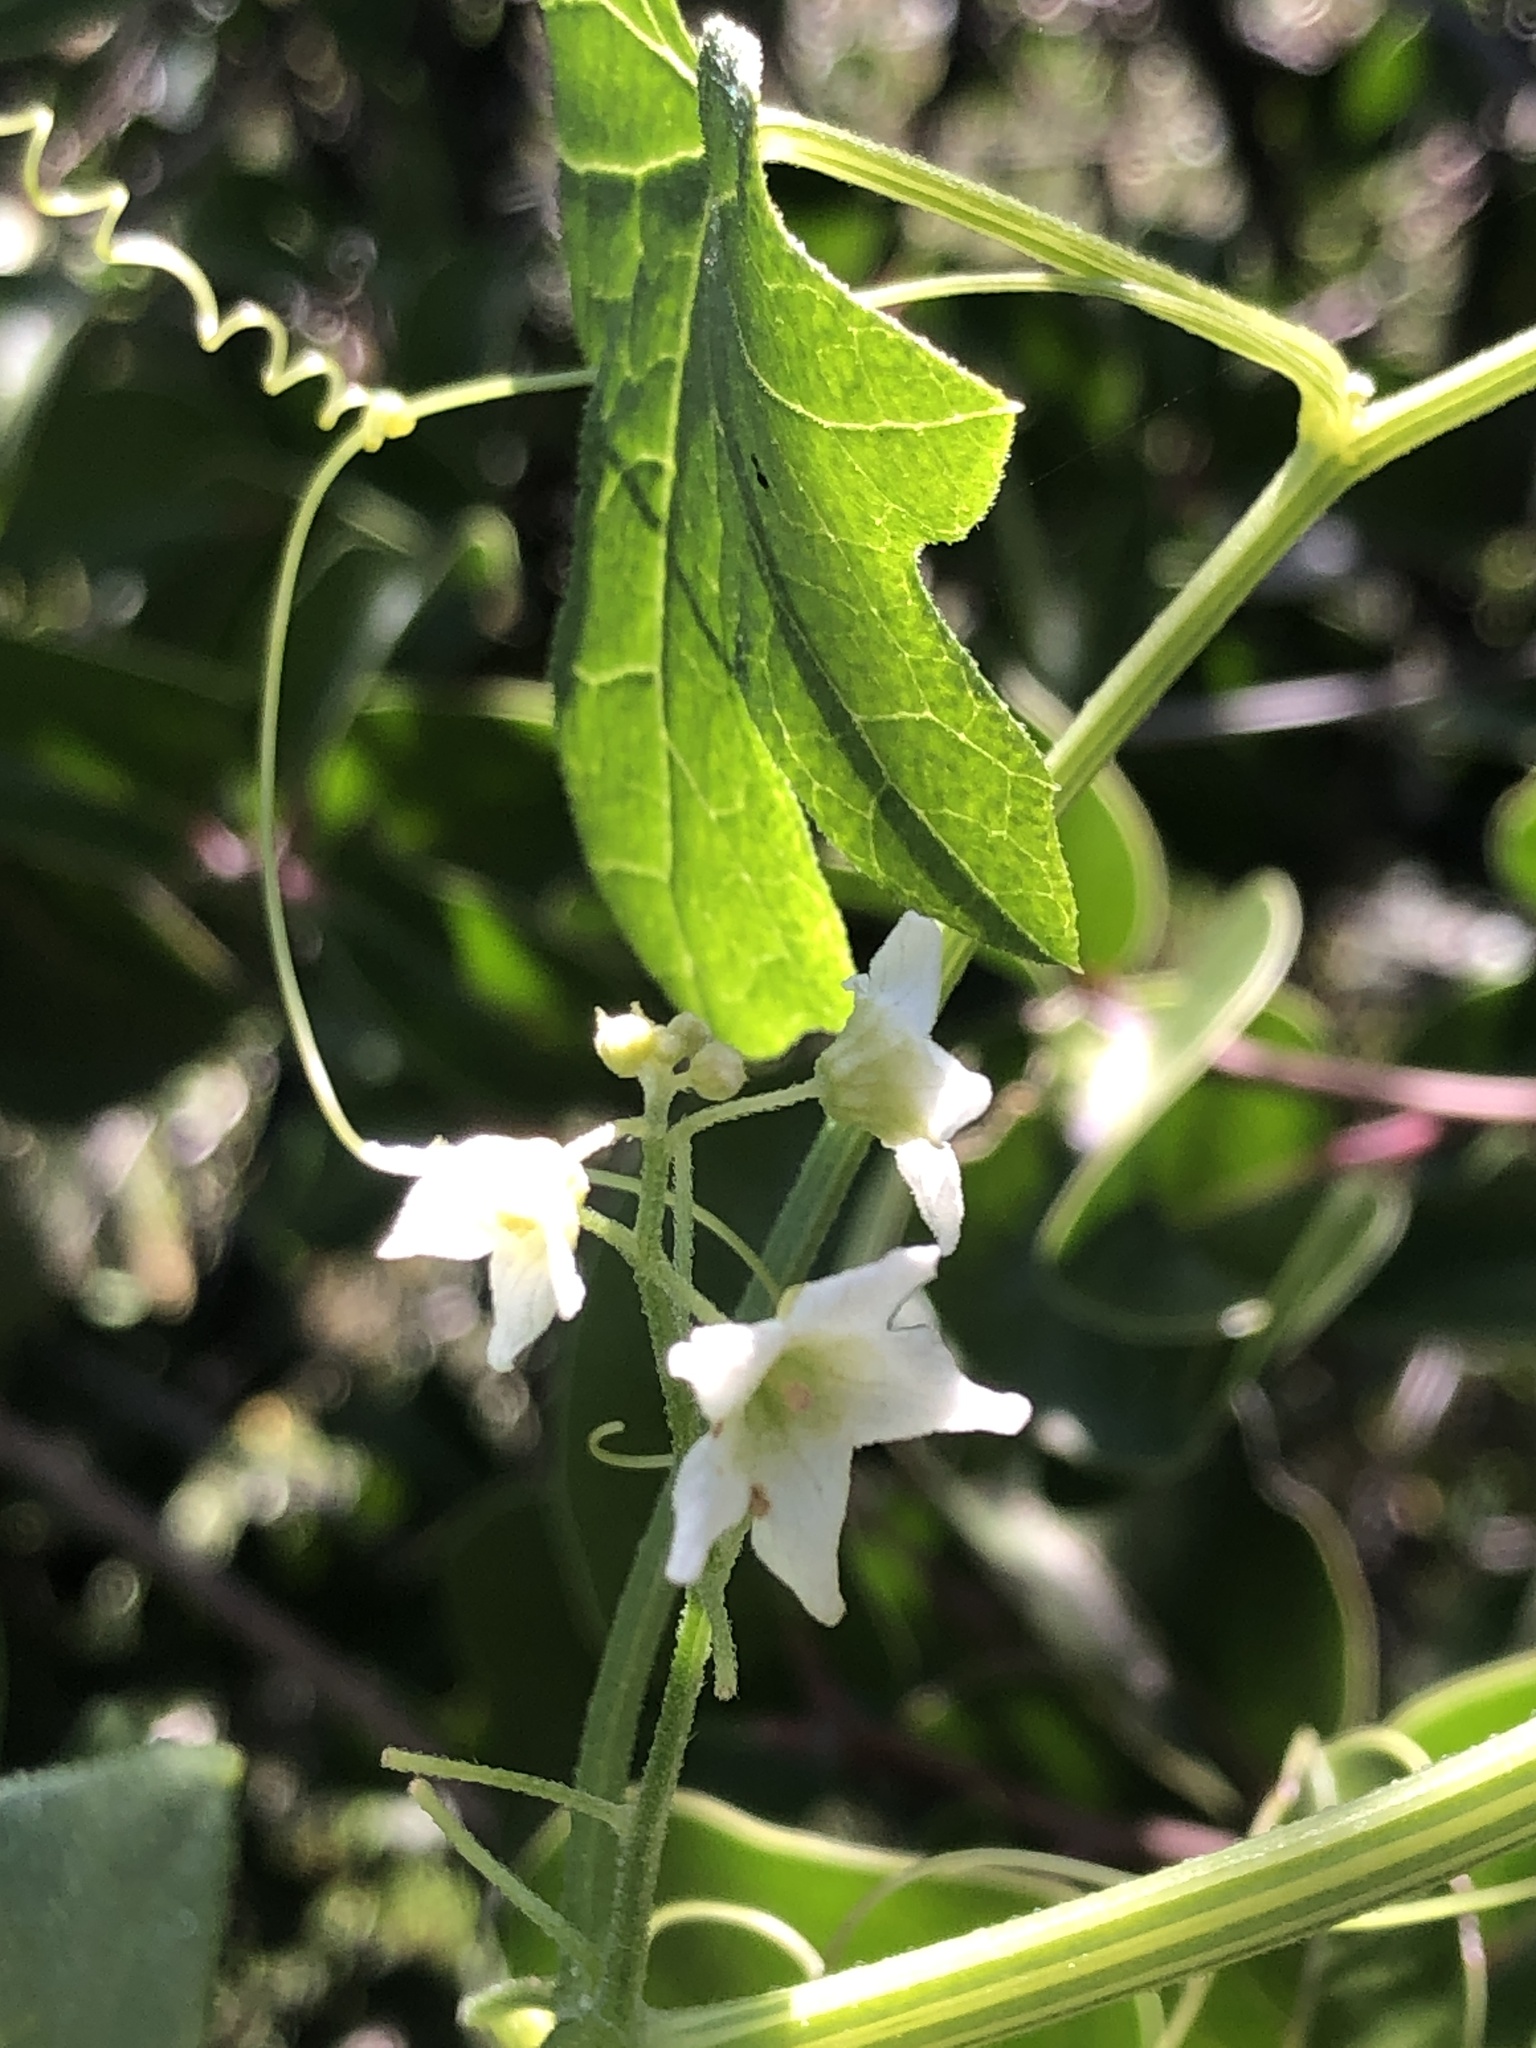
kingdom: Plantae
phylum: Tracheophyta
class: Magnoliopsida
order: Cucurbitales
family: Cucurbitaceae
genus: Marah
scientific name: Marah macrocarpa
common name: Cucamonga manroot
